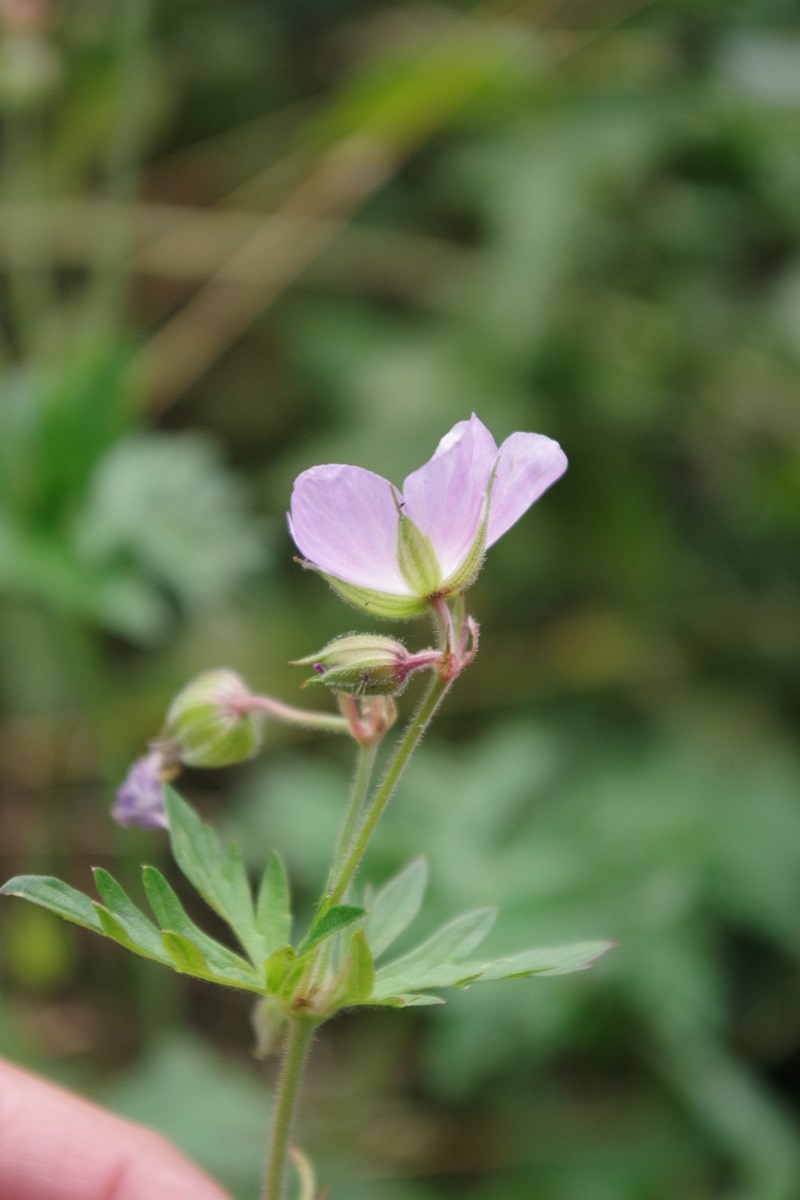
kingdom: Plantae
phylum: Tracheophyta
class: Magnoliopsida
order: Geraniales
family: Geraniaceae
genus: Geranium
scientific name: Geranium pratense
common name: Meadow crane's-bill
